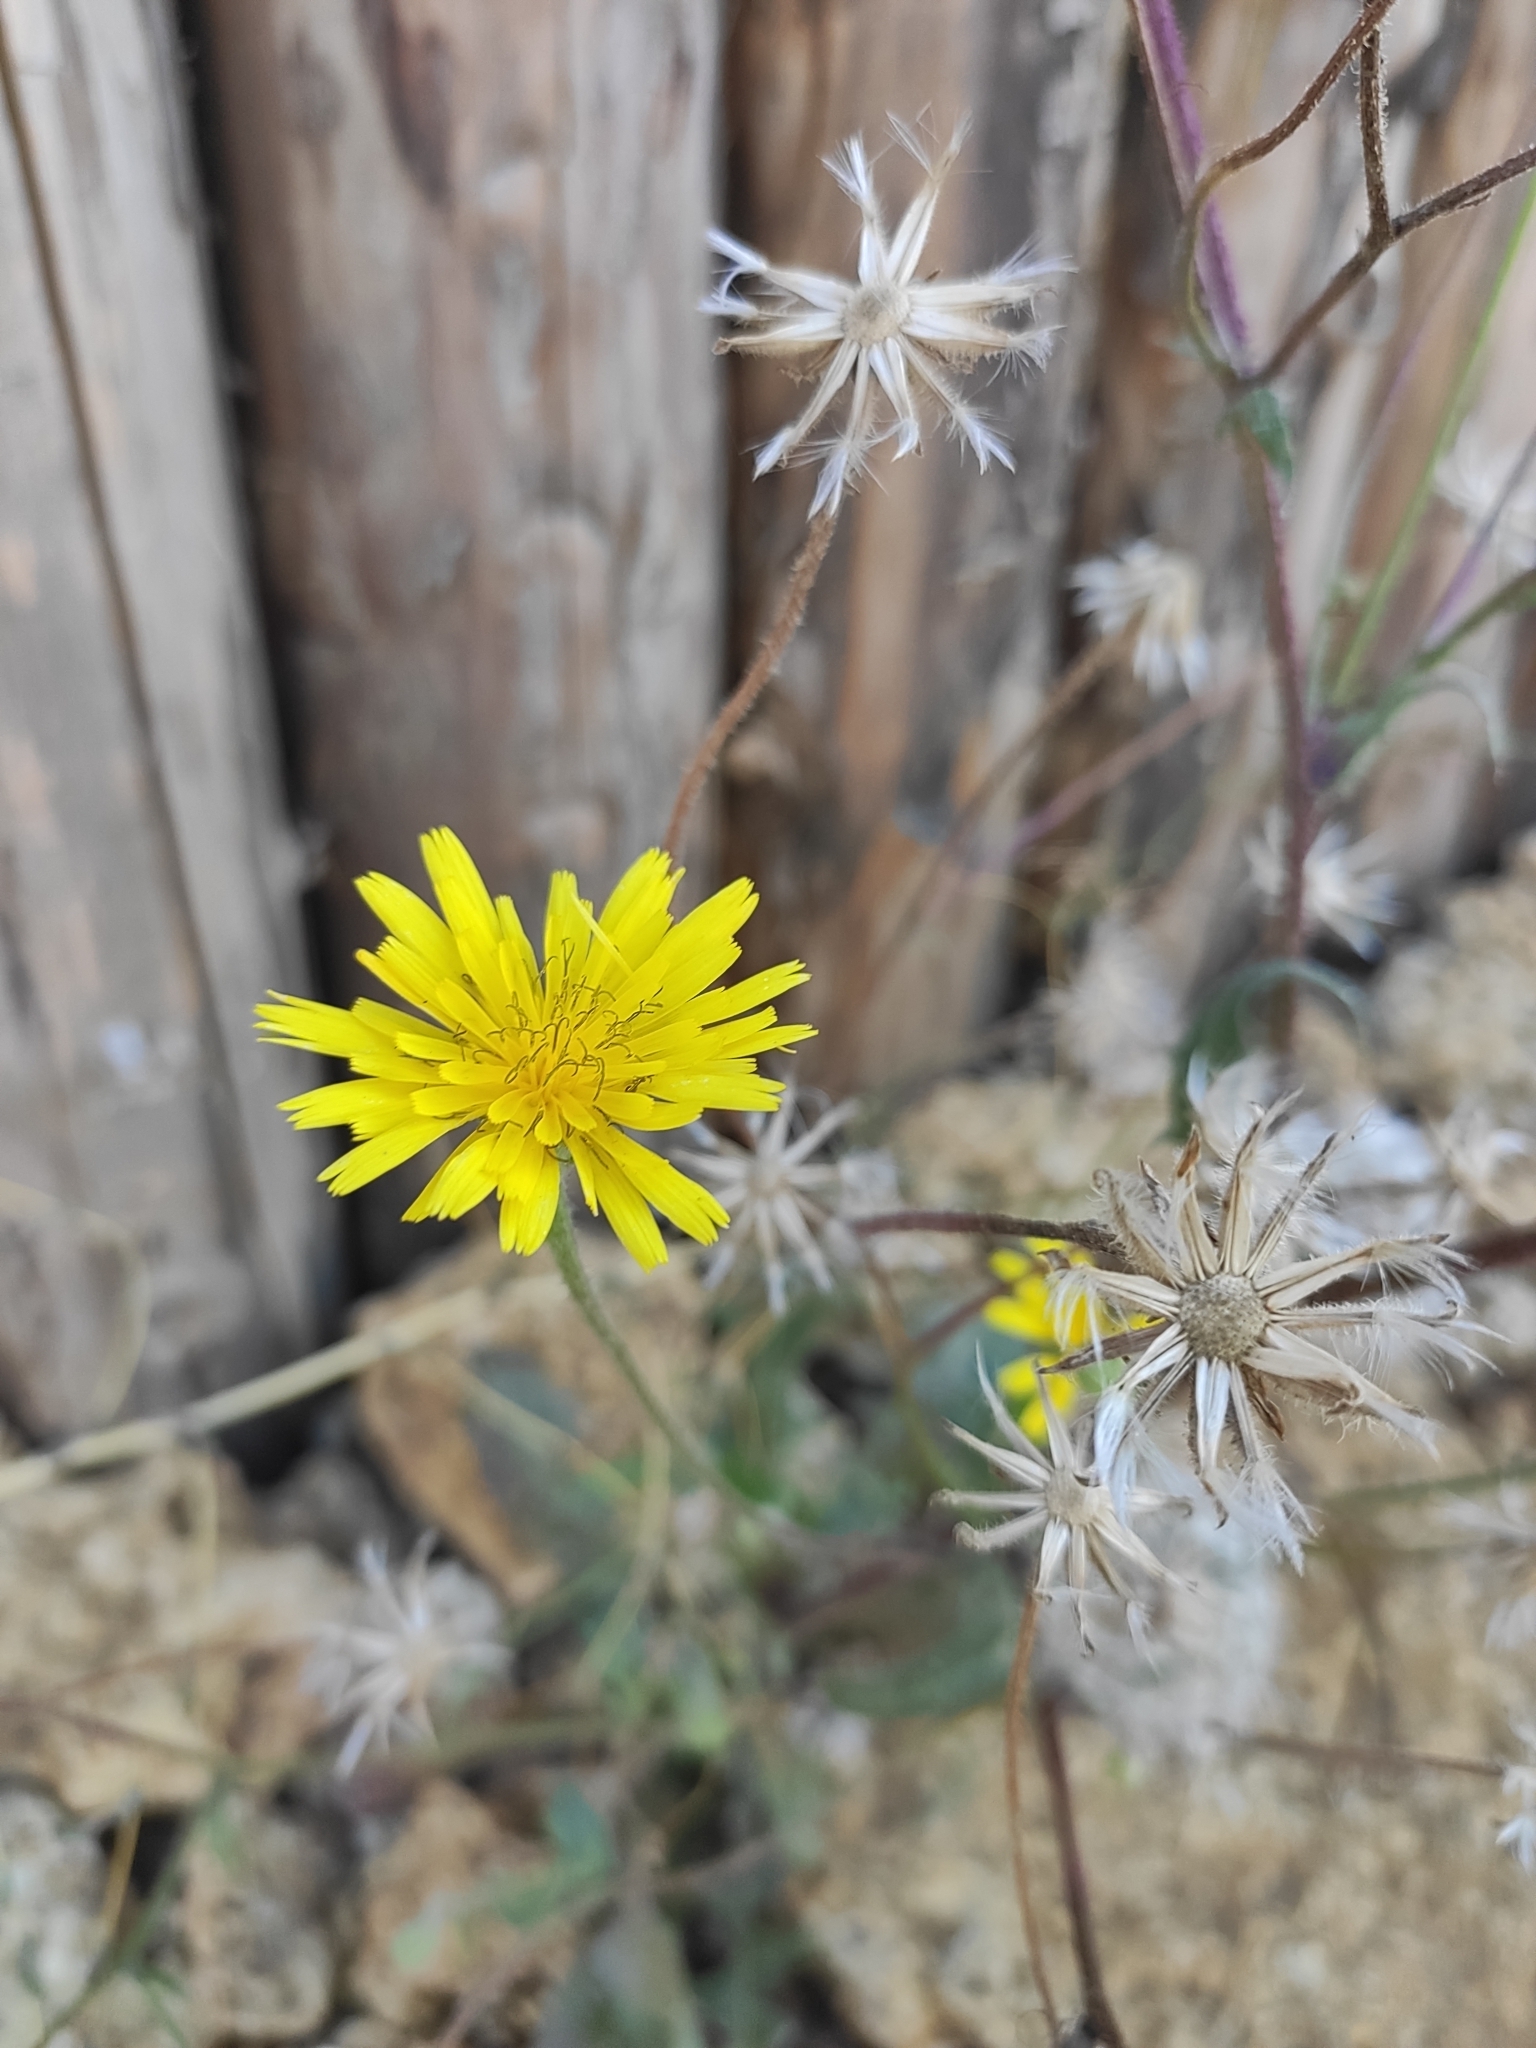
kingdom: Plantae
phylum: Tracheophyta
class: Magnoliopsida
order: Asterales
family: Asteraceae
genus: Crepis
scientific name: Crepis foetida
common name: Stinking hawk's-beard
